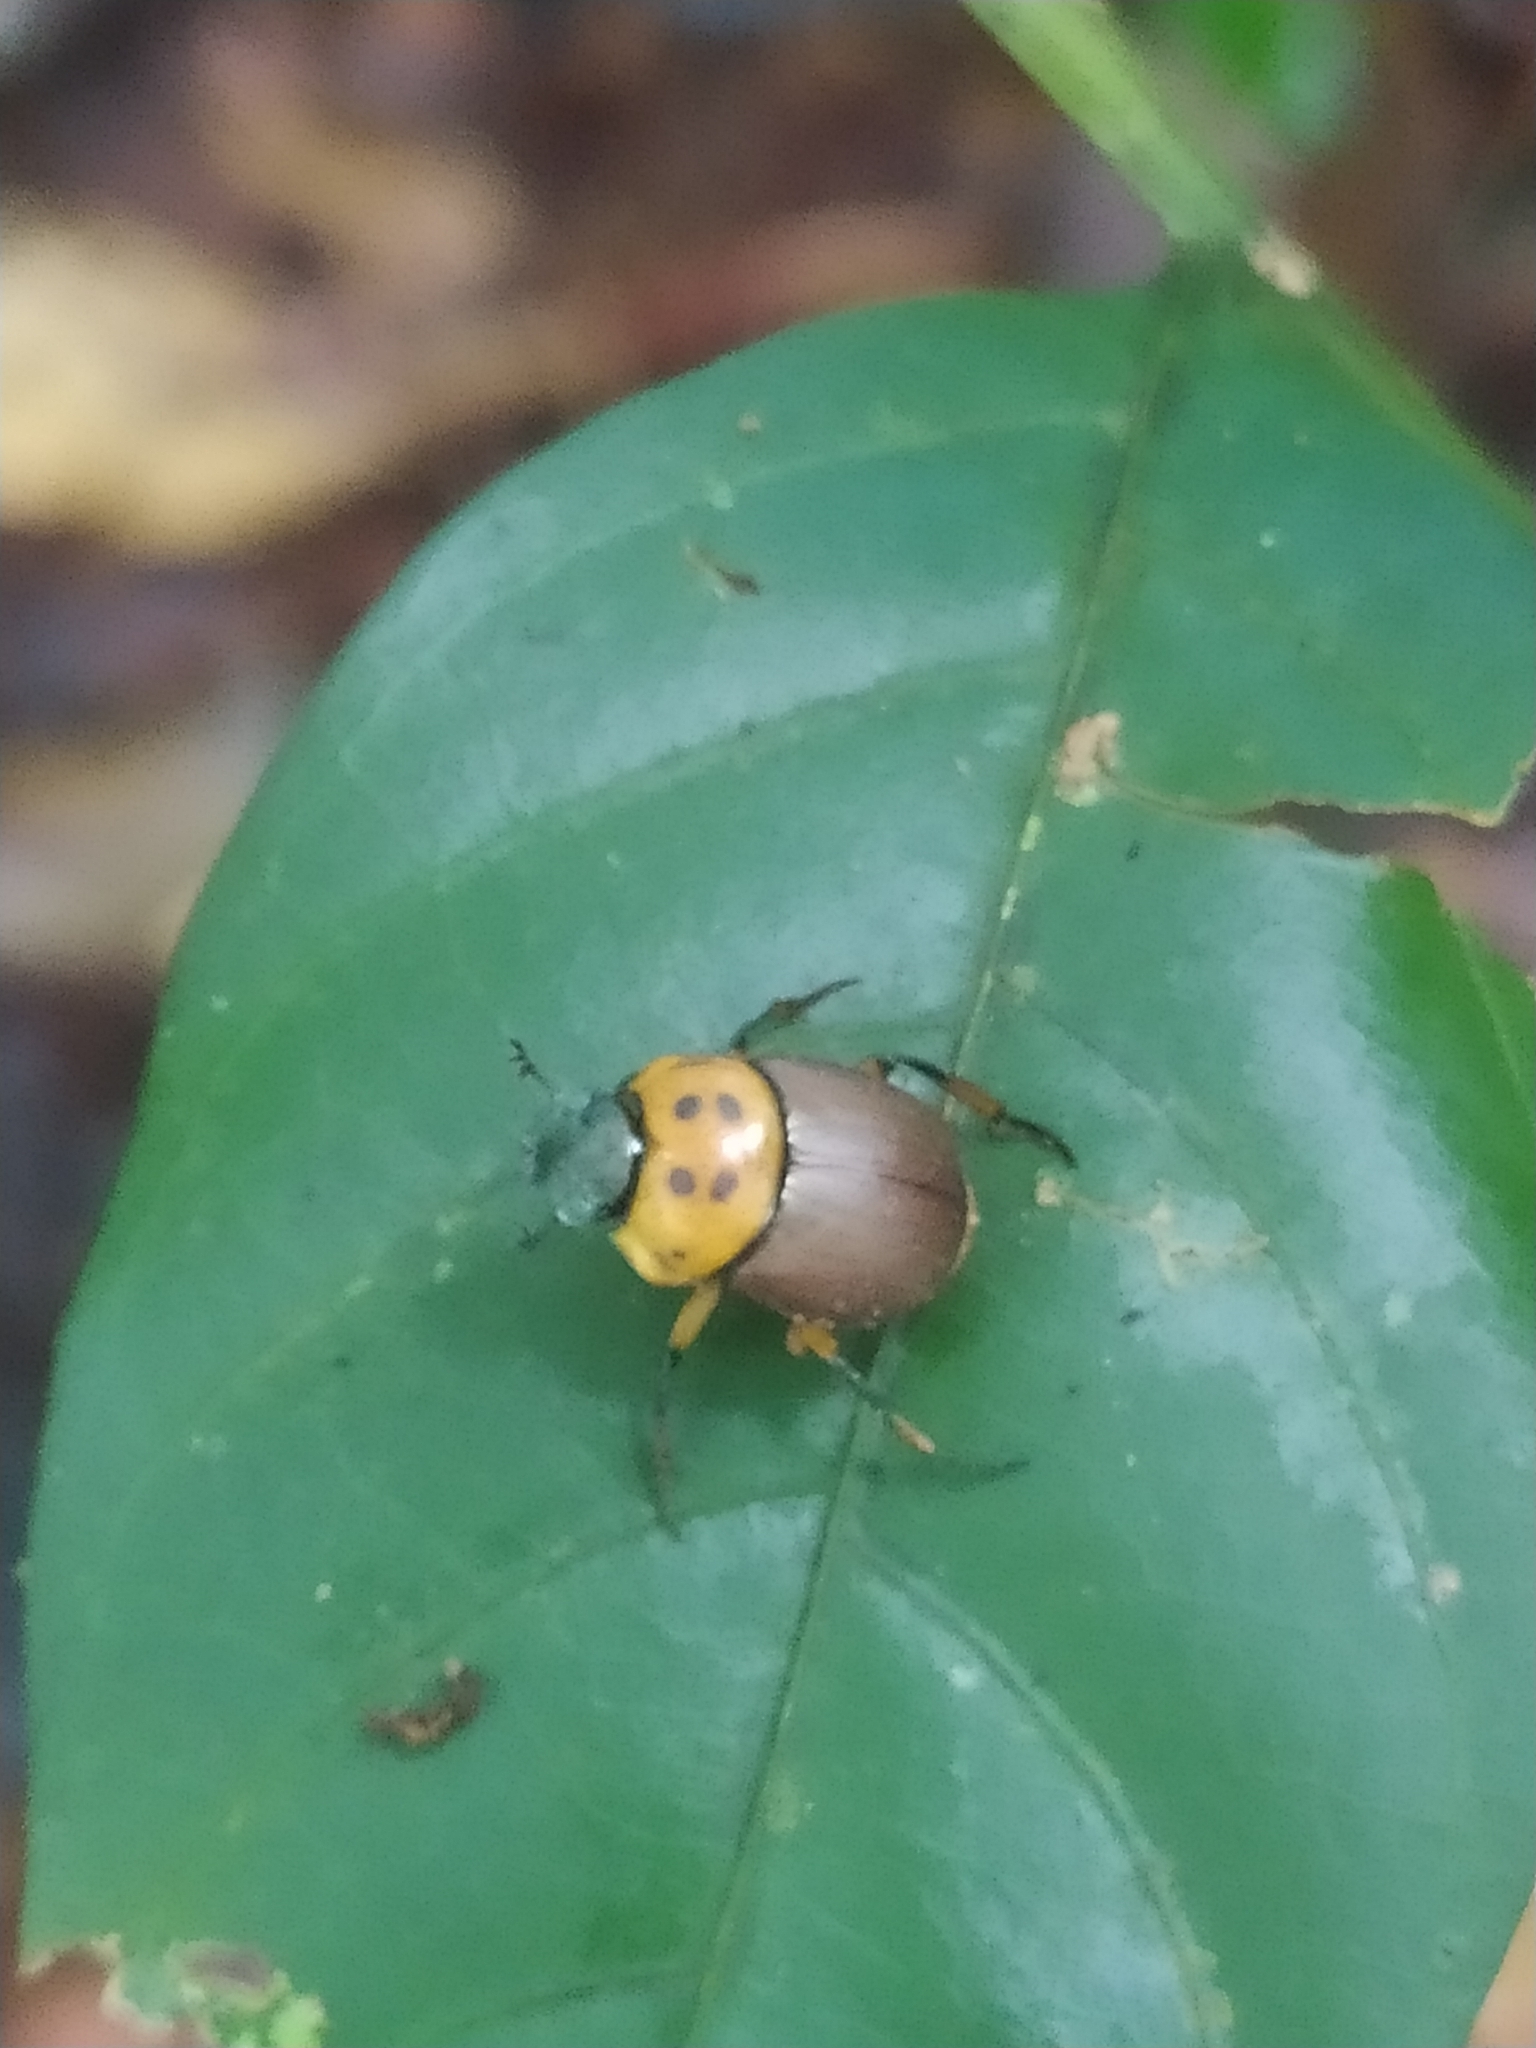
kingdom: Animalia
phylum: Arthropoda
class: Insecta
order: Coleoptera
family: Scarabaeidae
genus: Canthon
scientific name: Canthon triangularis
